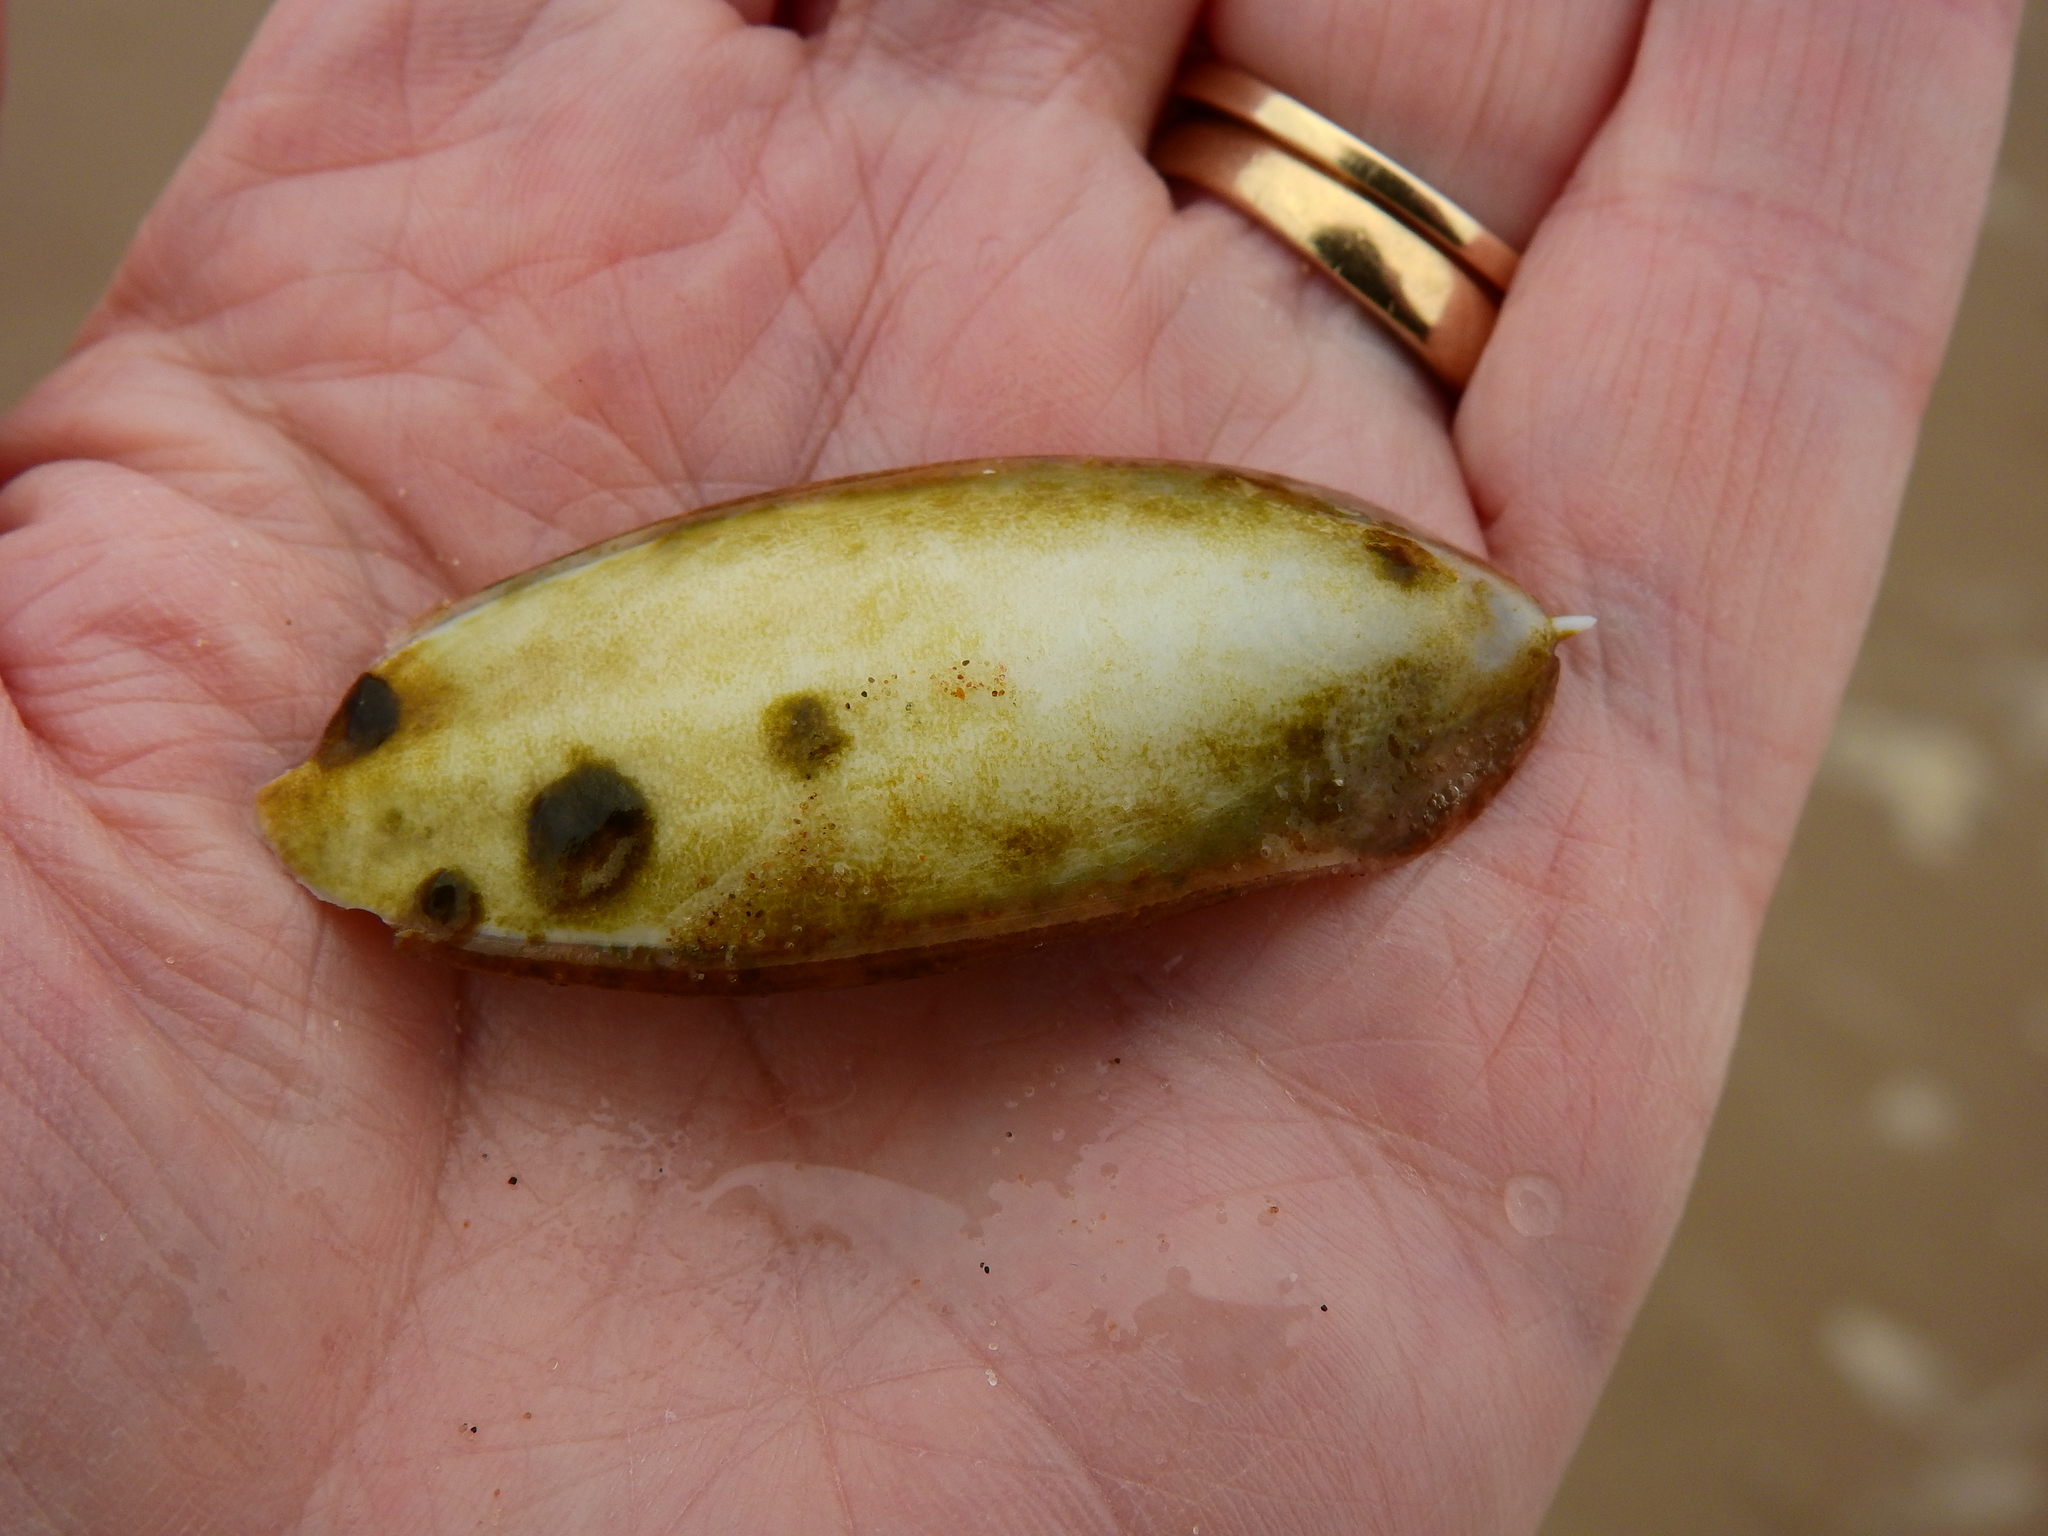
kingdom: Animalia
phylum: Mollusca
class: Cephalopoda
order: Sepiida
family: Sepiidae
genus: Sepia
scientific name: Sepia officinalis
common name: Common cuttlefish
